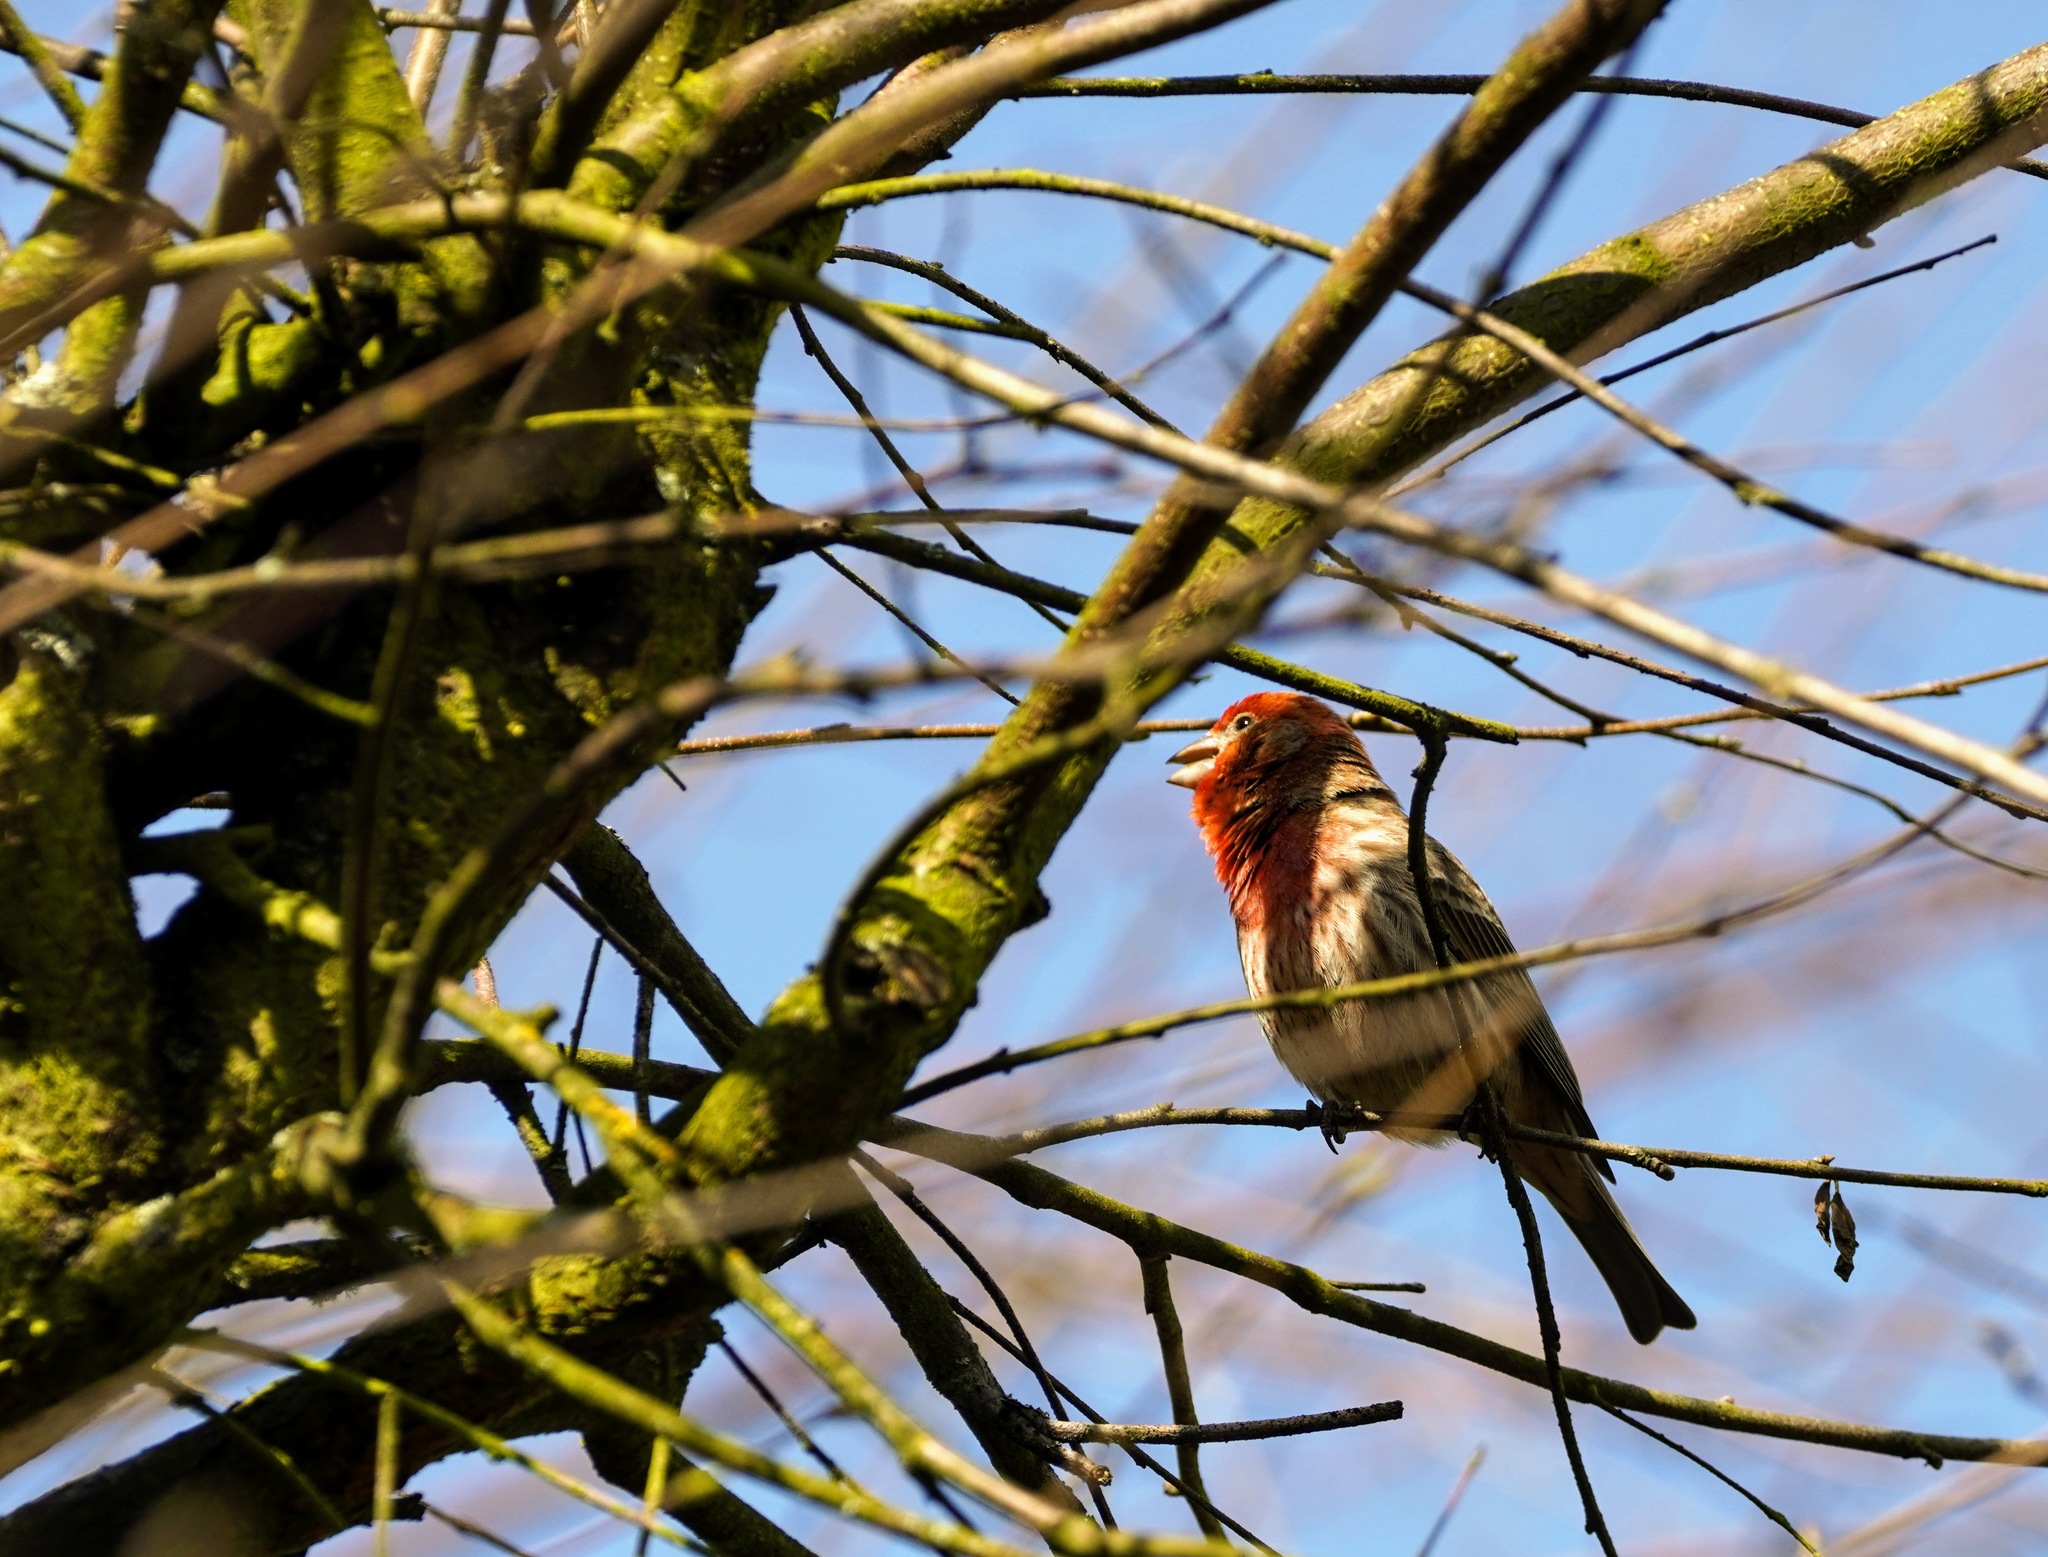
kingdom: Animalia
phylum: Chordata
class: Aves
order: Passeriformes
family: Fringillidae
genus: Haemorhous
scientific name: Haemorhous mexicanus
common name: House finch
